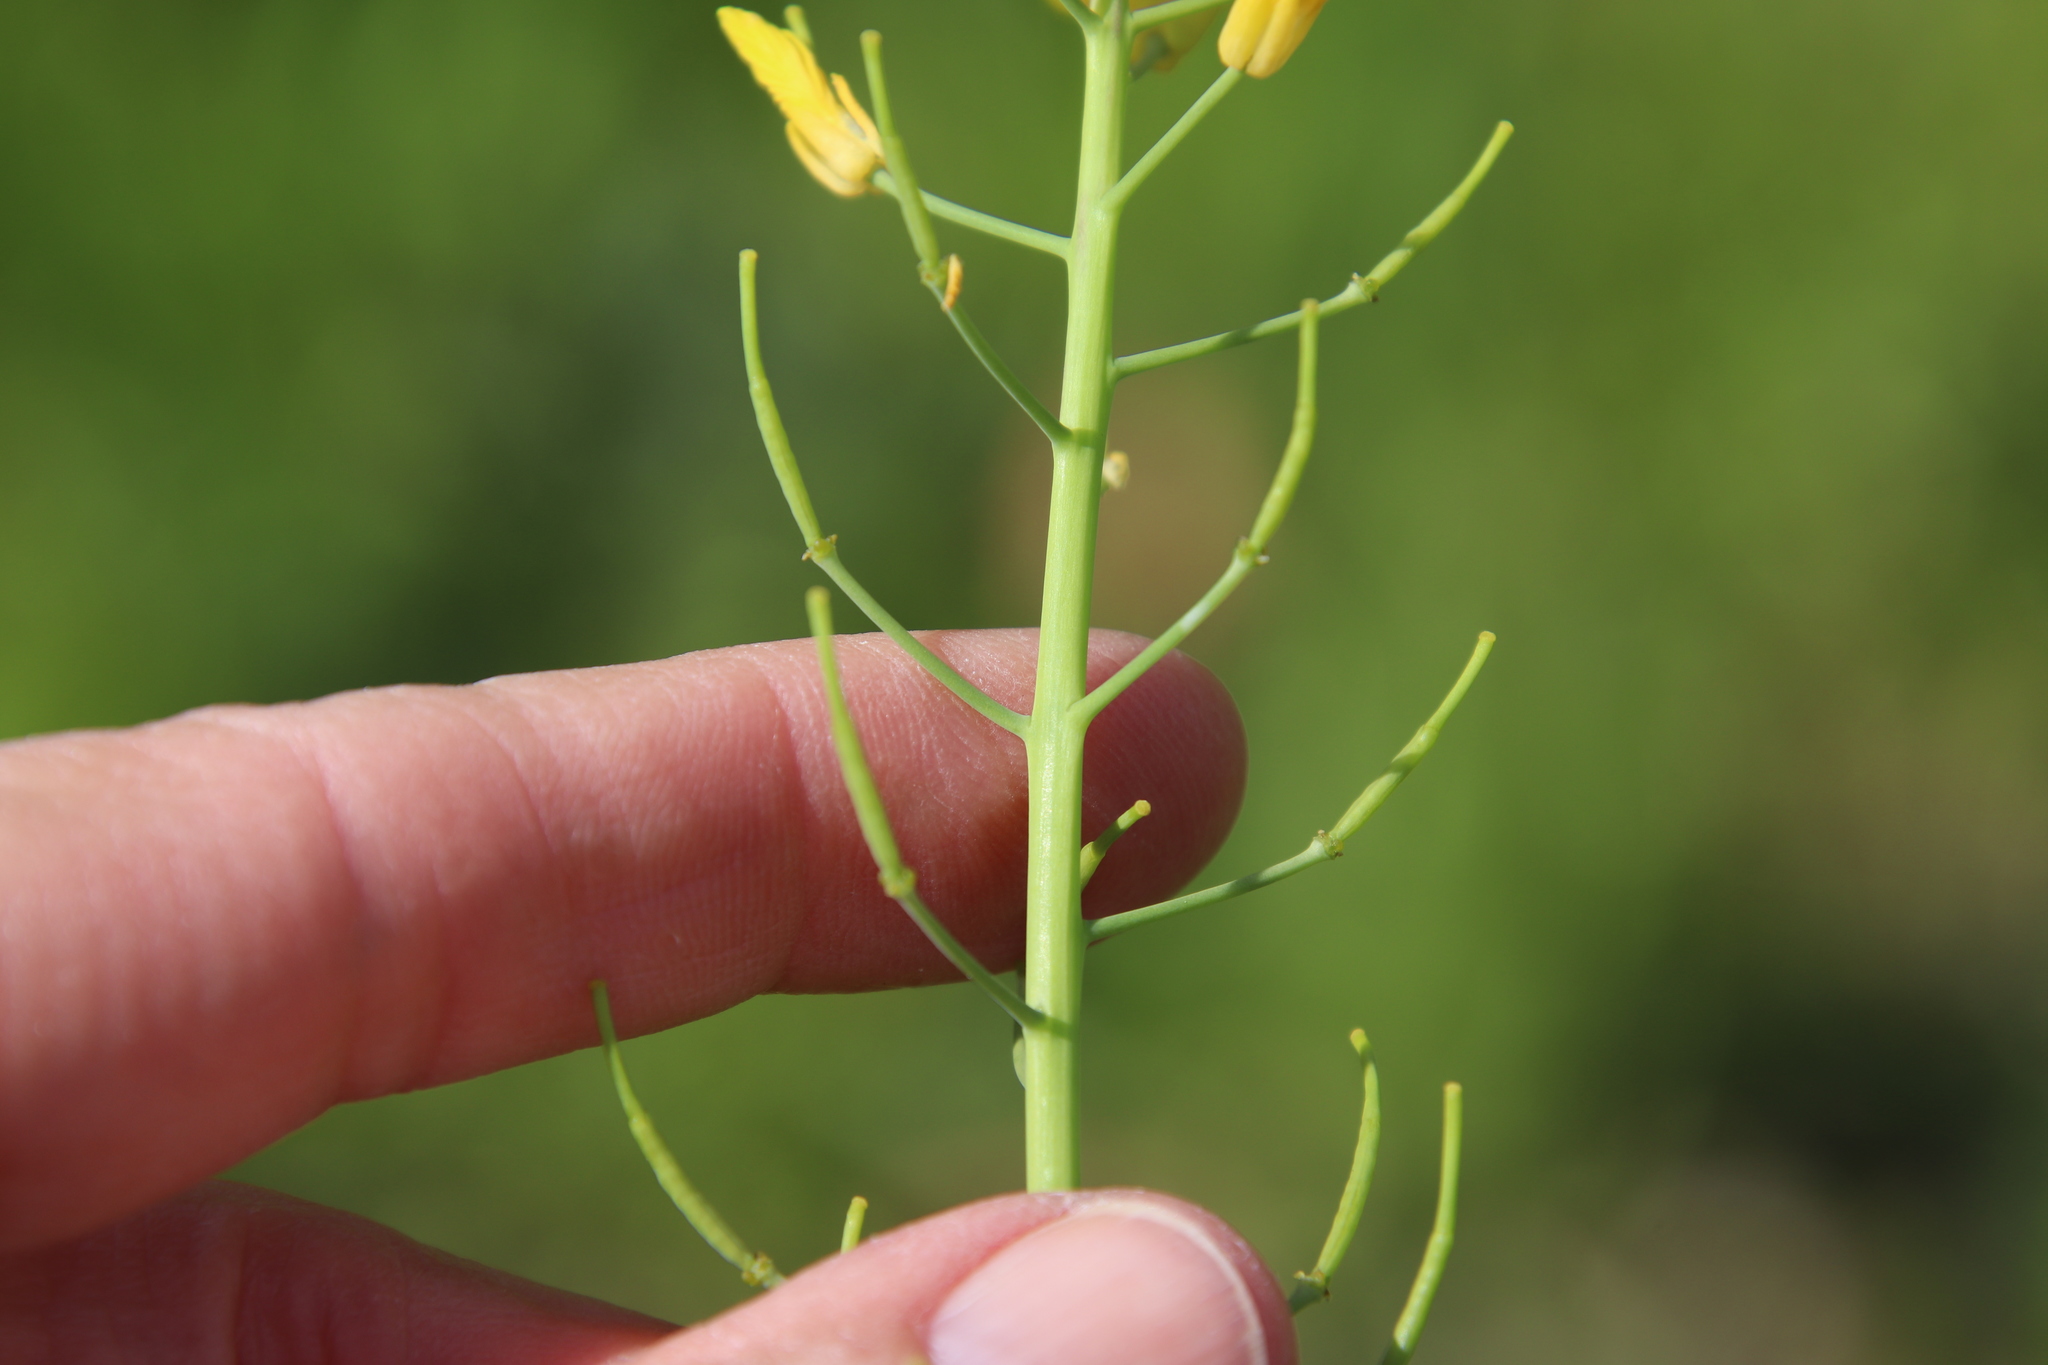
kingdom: Plantae
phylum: Tracheophyta
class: Magnoliopsida
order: Brassicales
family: Brassicaceae
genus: Brassica
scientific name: Brassica rapa
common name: Field mustard
